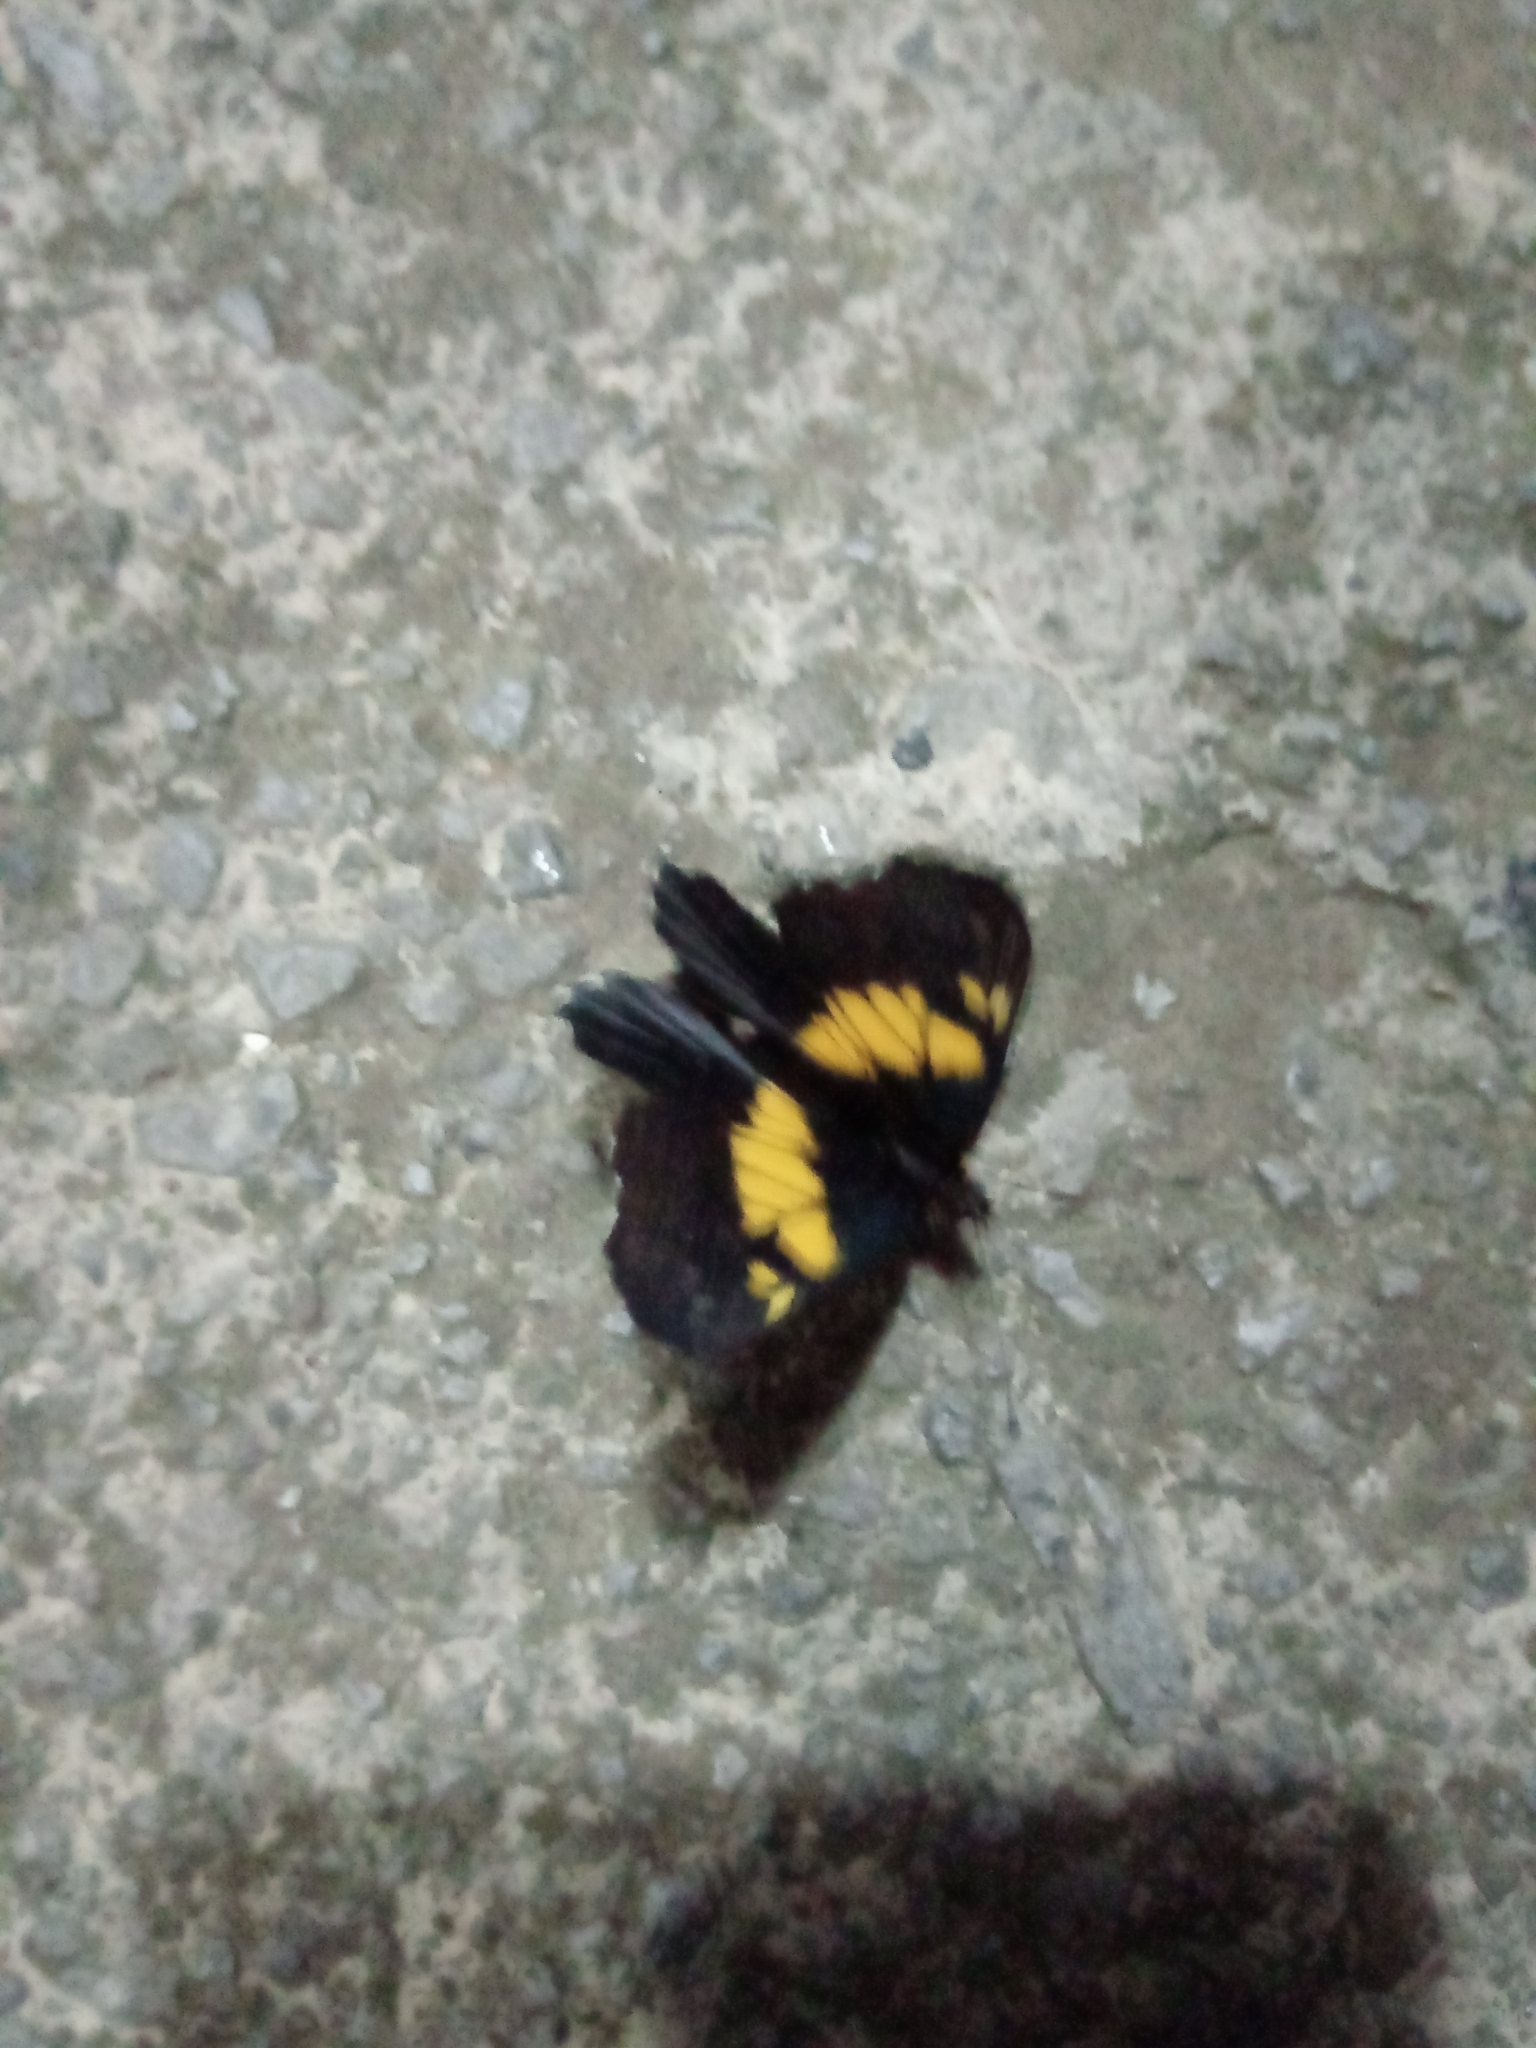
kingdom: Animalia
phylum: Arthropoda
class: Insecta
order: Lepidoptera
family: Pieridae
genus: Archonias
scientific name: Archonias teutila
